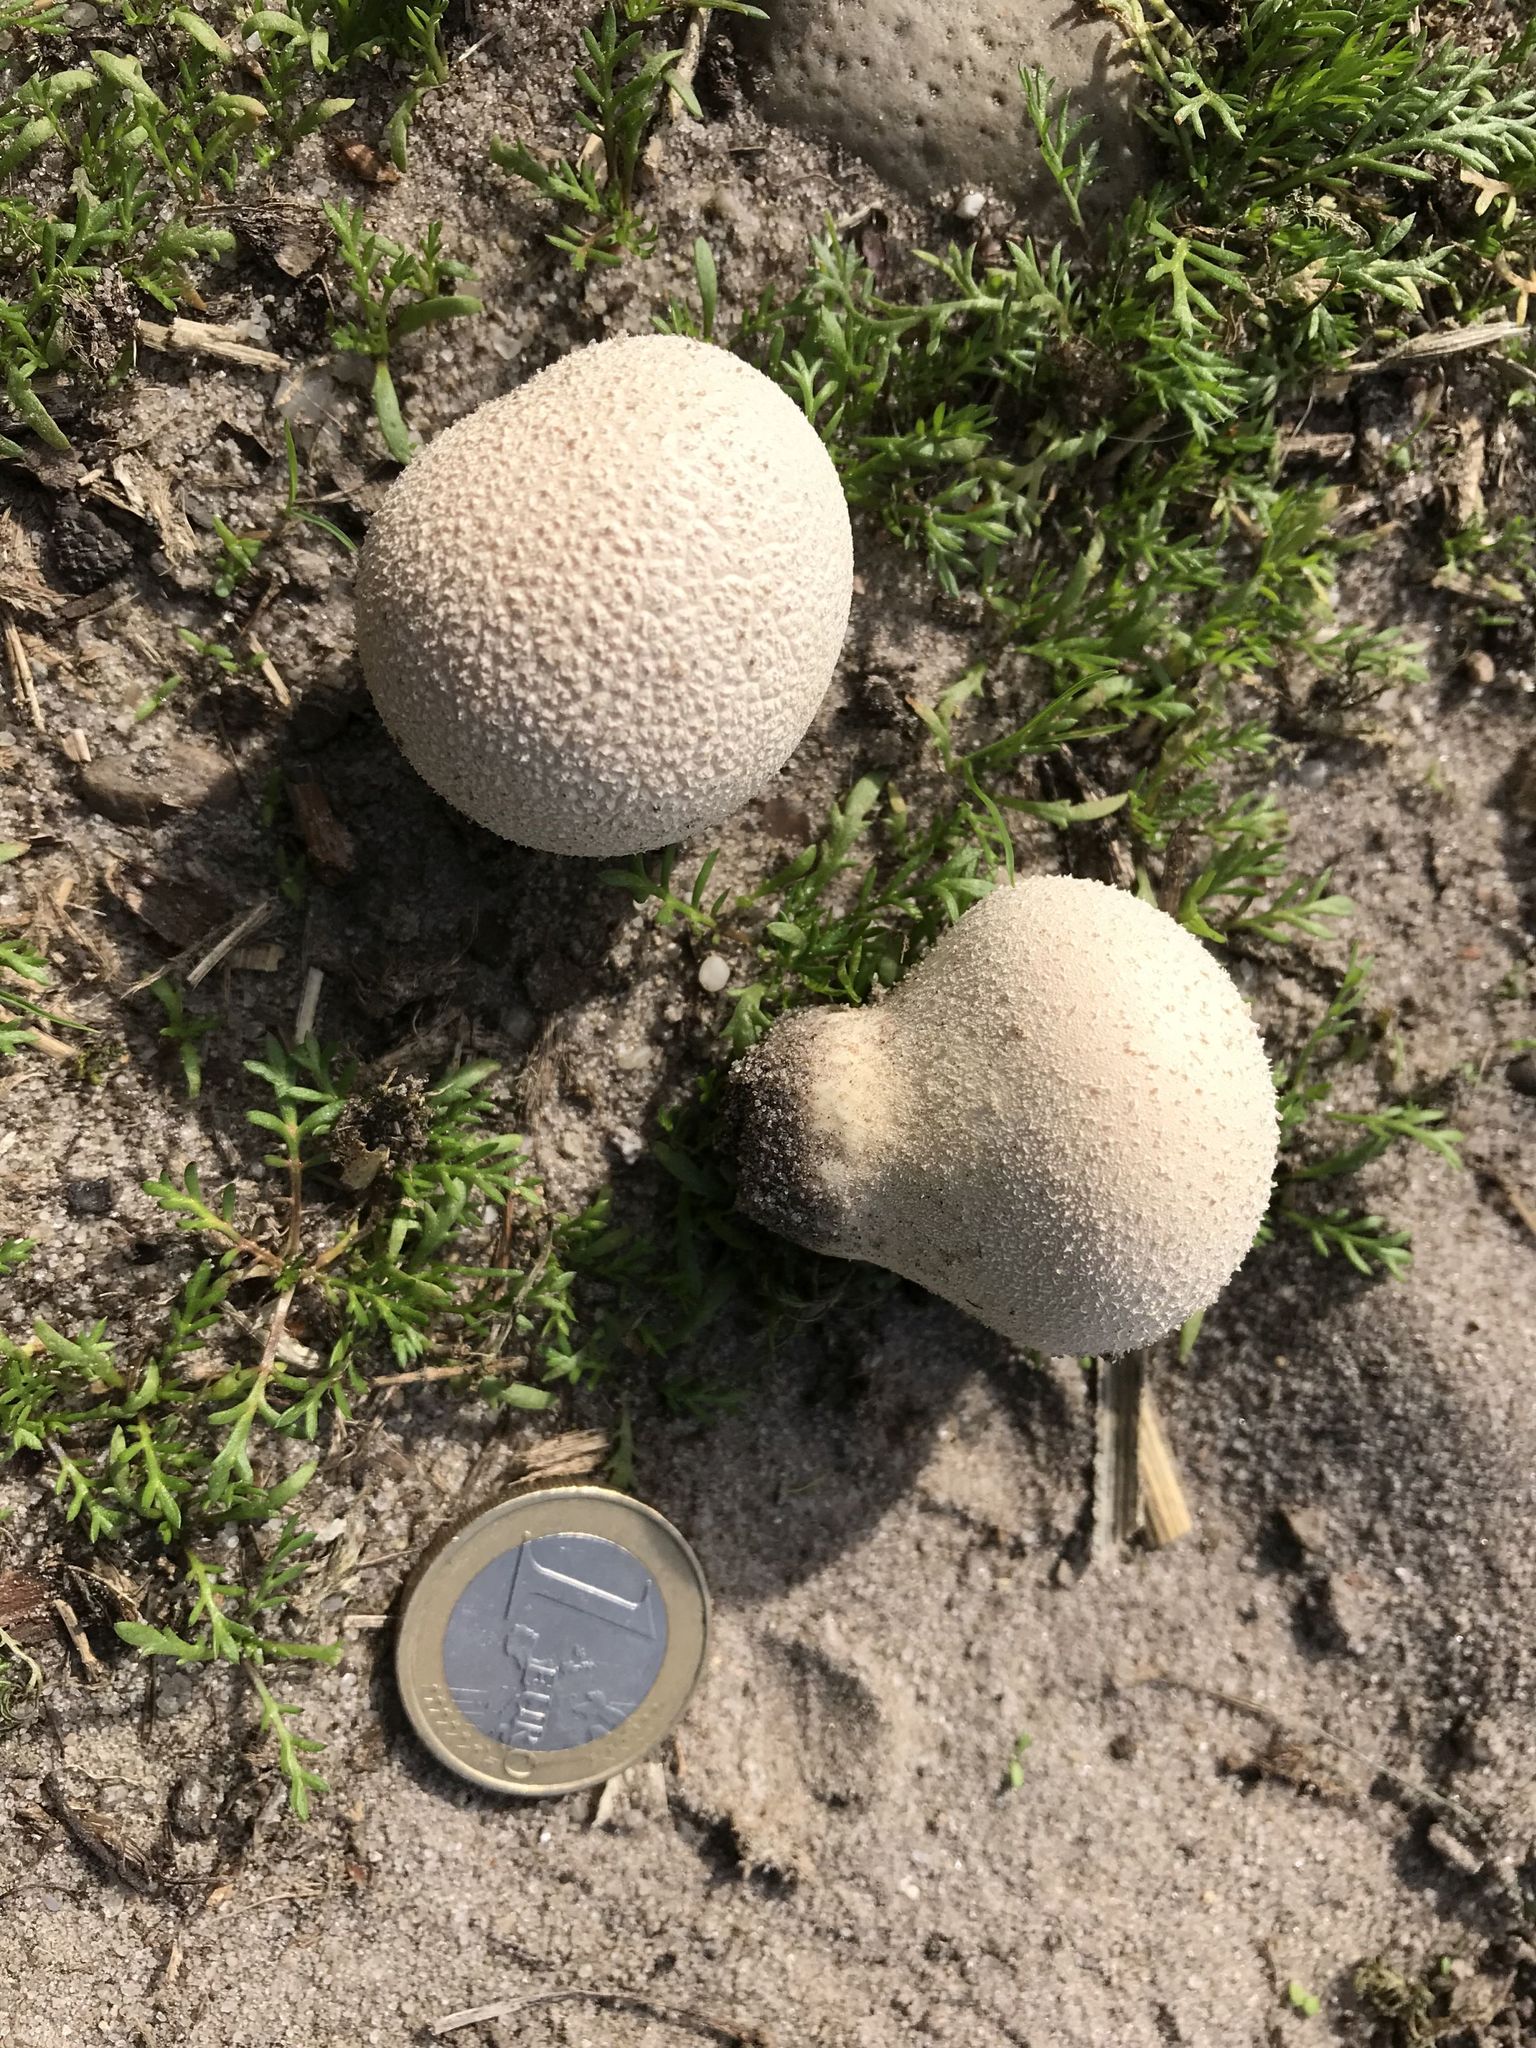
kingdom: Fungi
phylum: Basidiomycota
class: Agaricomycetes
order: Agaricales
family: Lycoperdaceae
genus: Lycoperdon
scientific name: Lycoperdon pratense
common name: Meadow puffball
